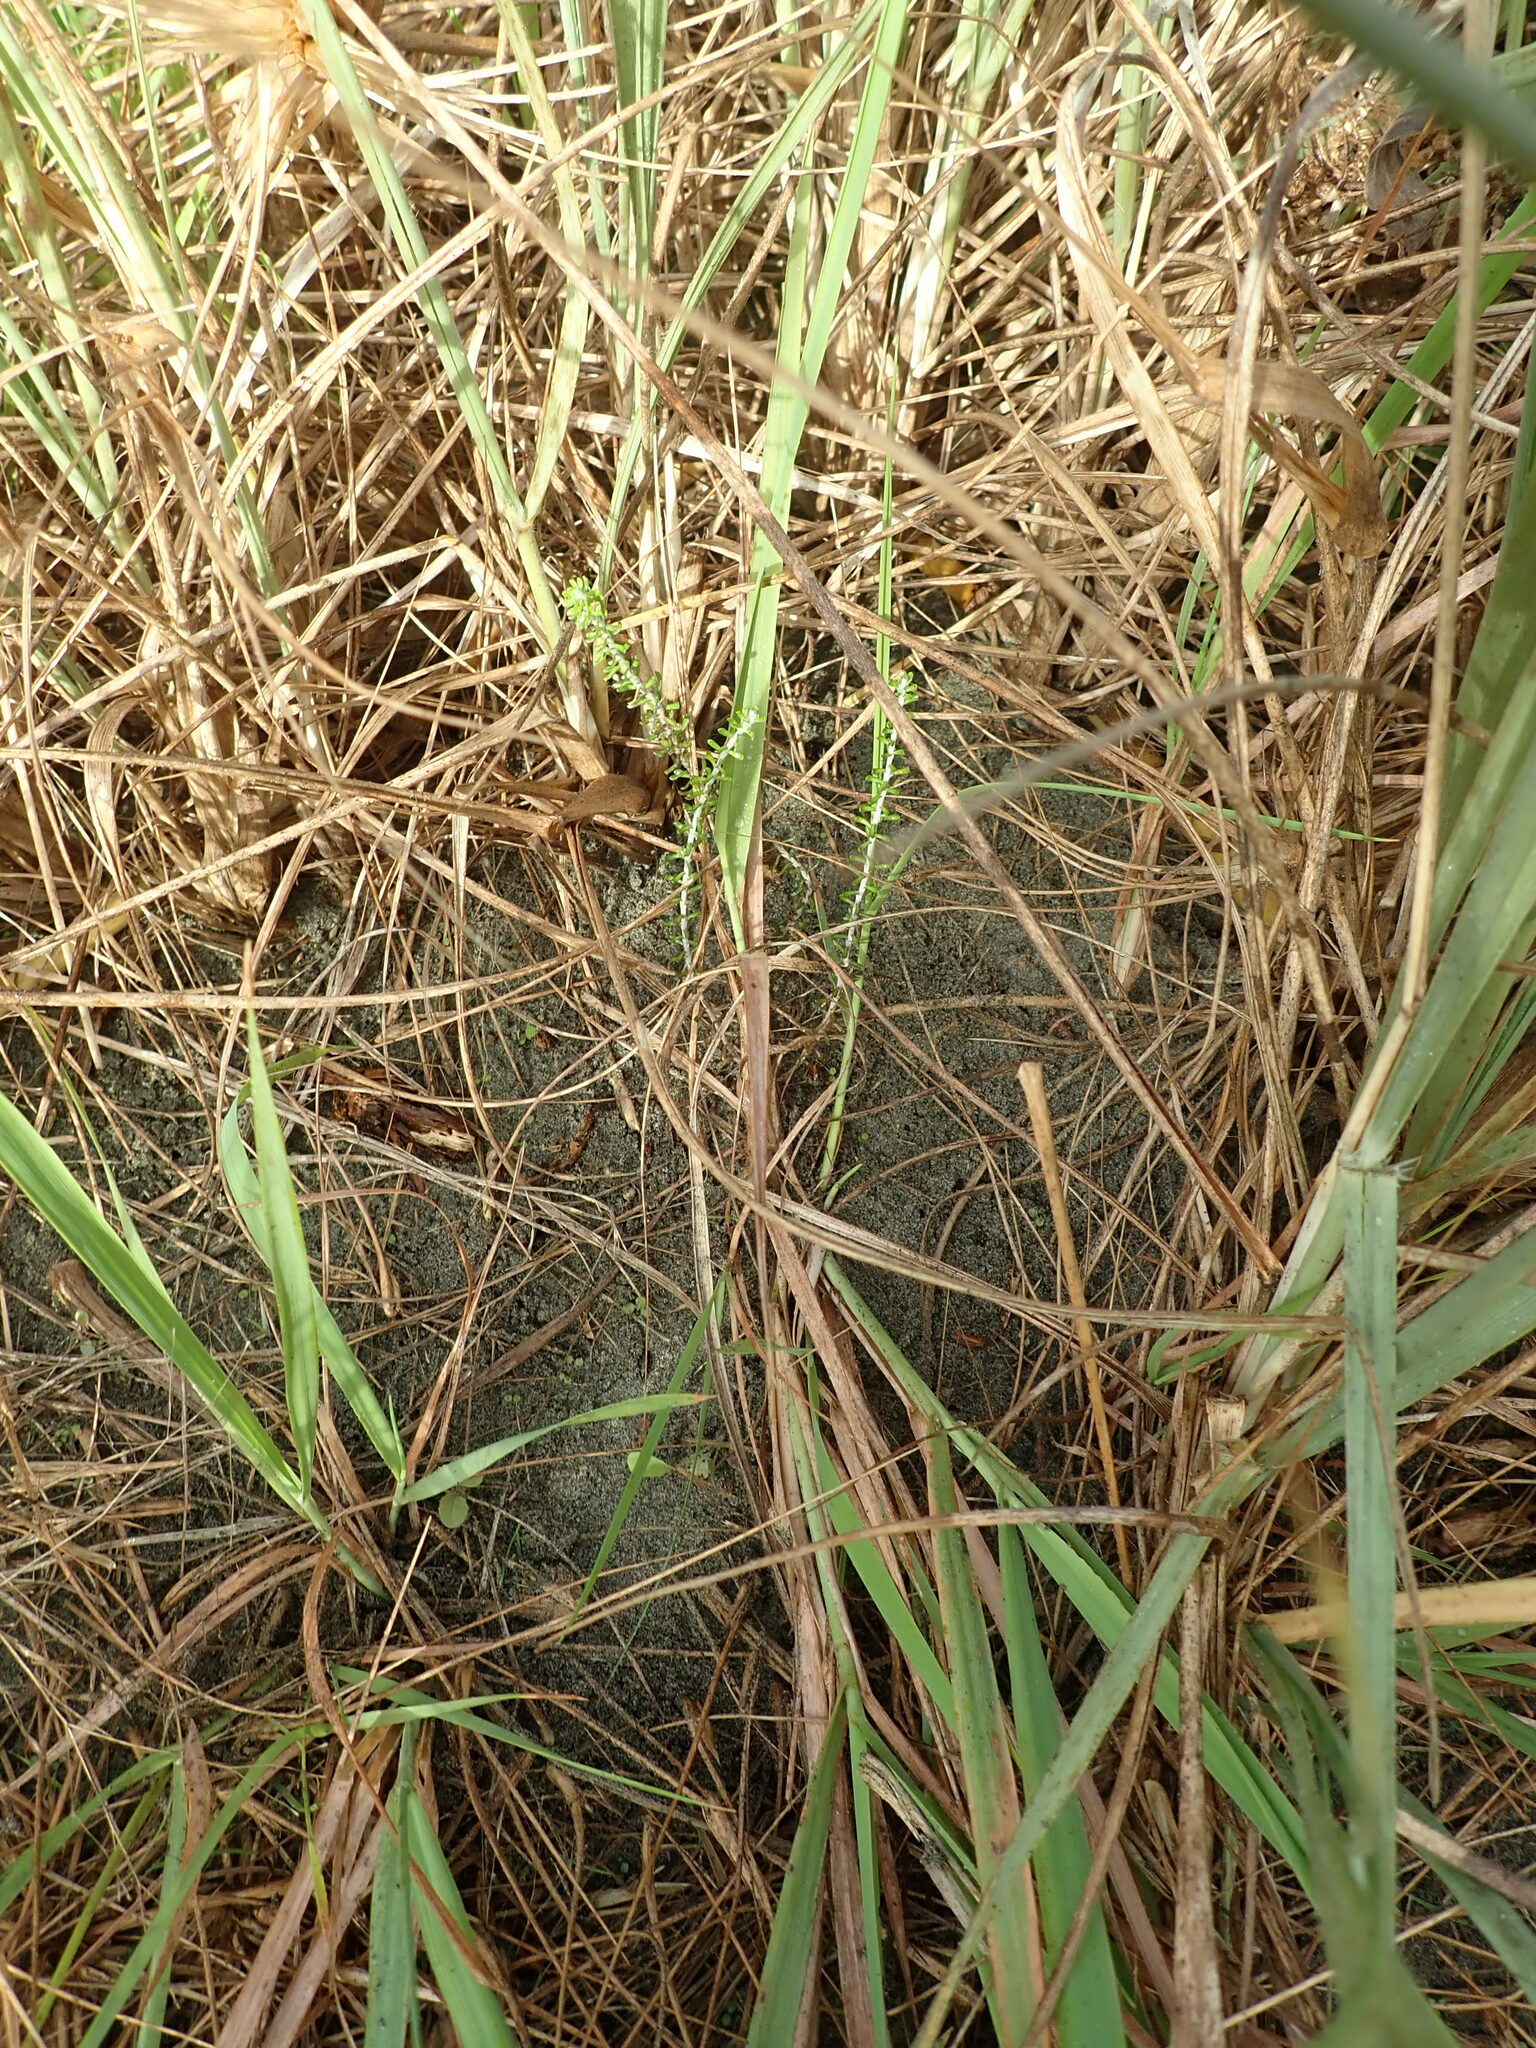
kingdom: Plantae
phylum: Tracheophyta
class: Magnoliopsida
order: Asterales
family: Asteraceae
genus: Ozothamnus
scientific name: Ozothamnus leptophyllus
